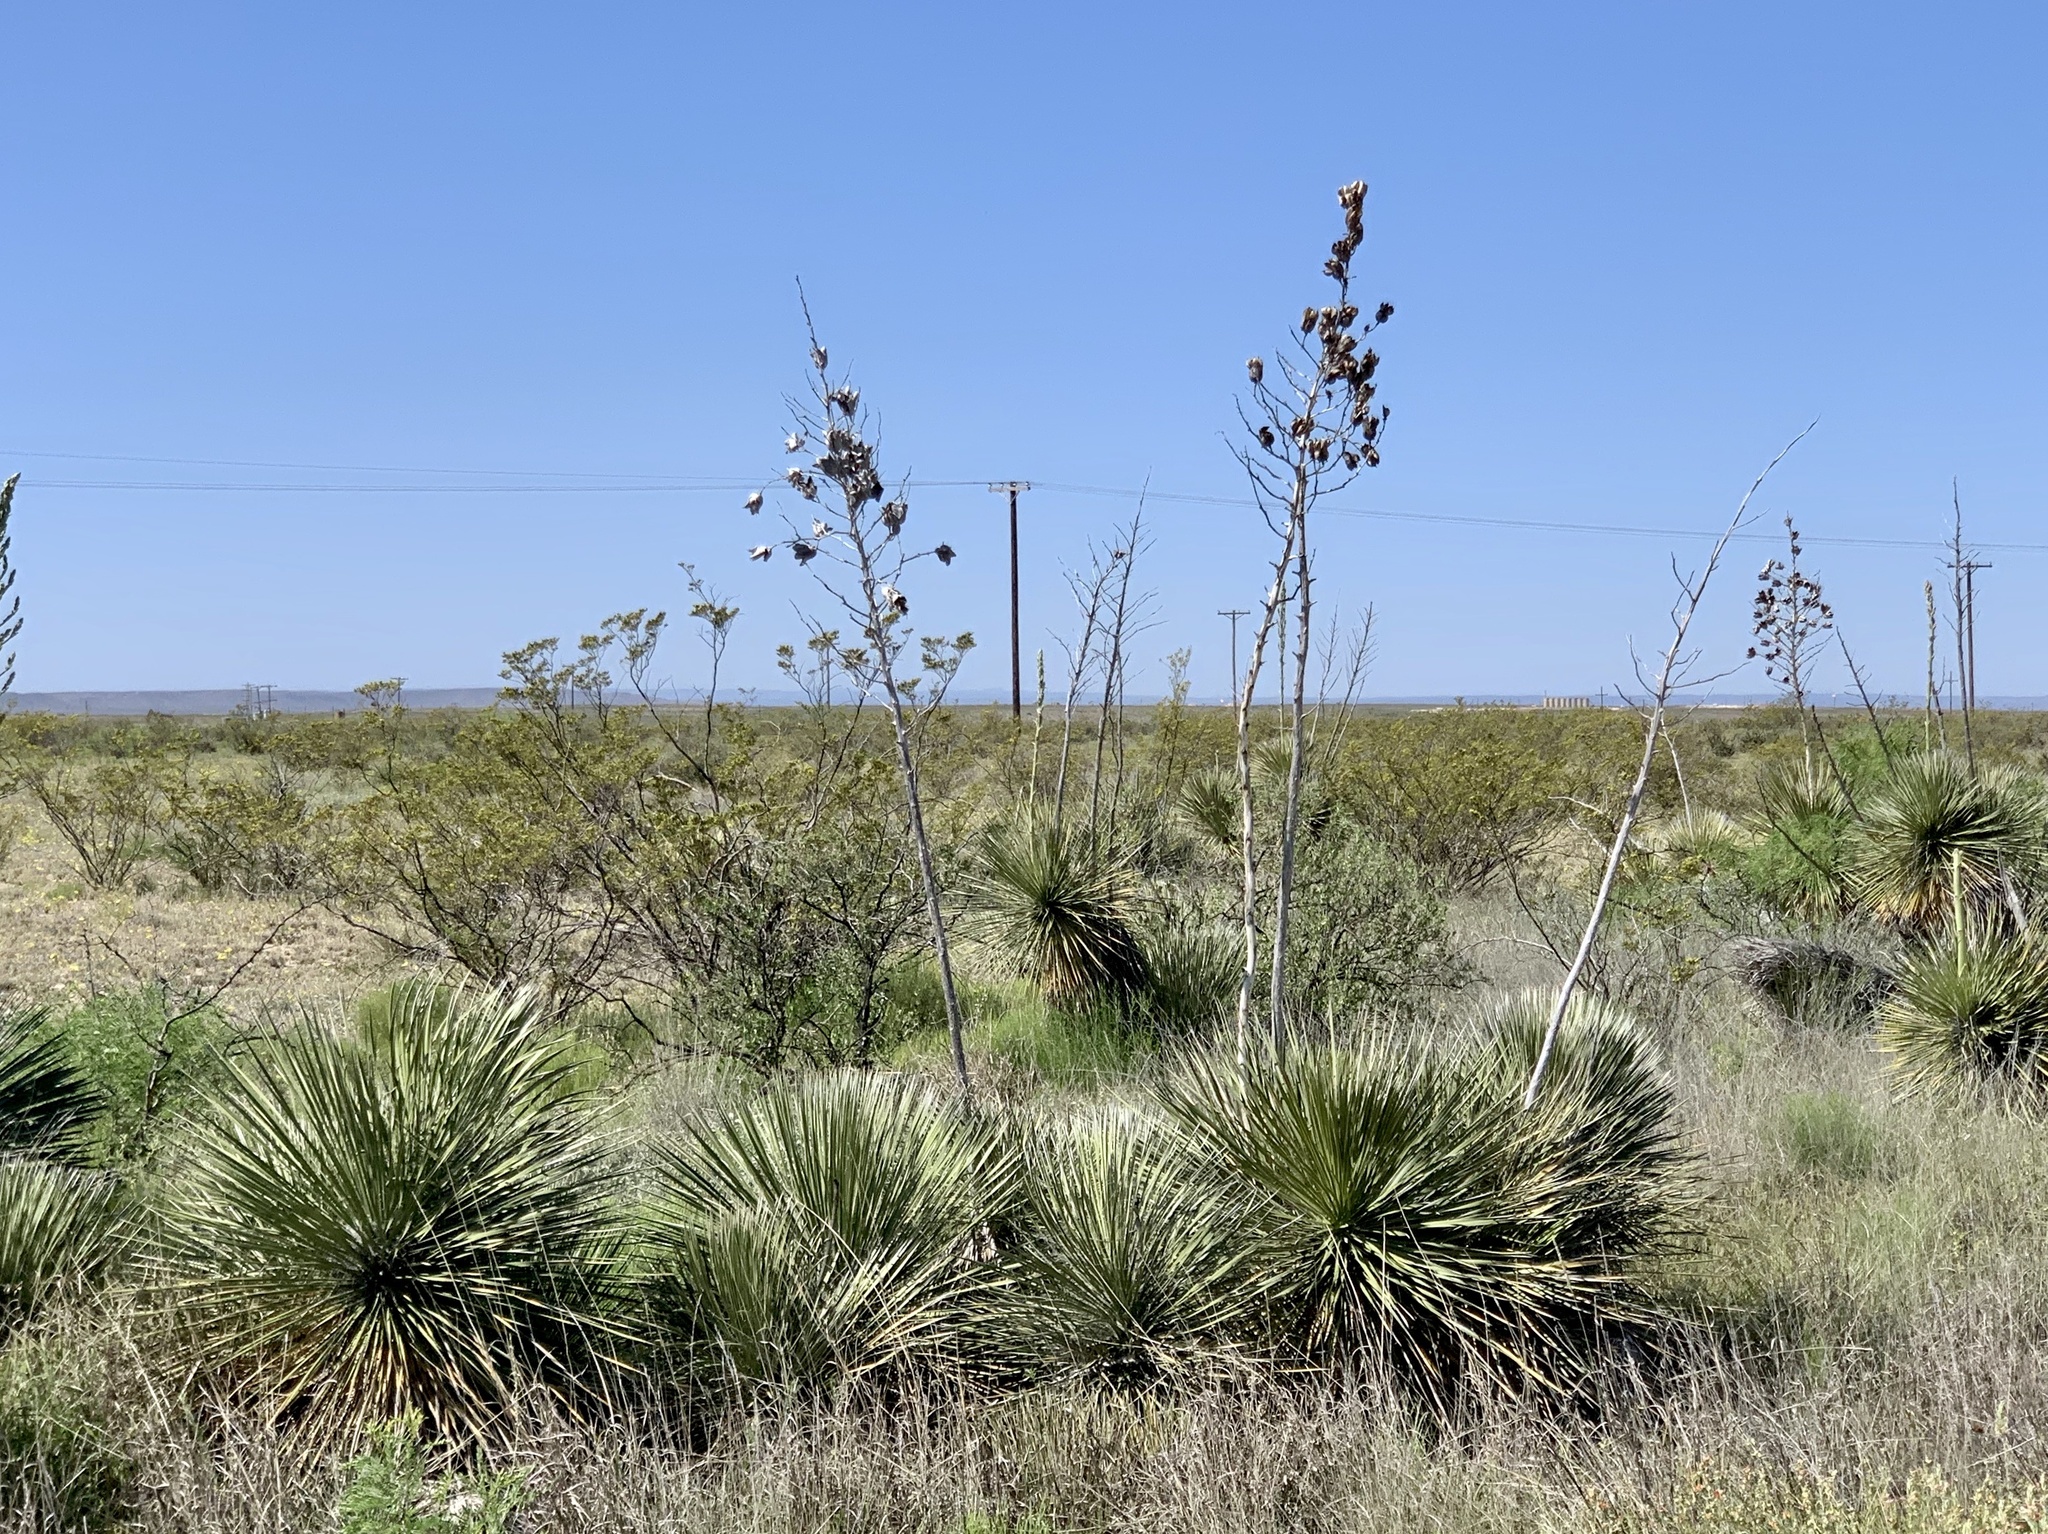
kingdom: Plantae
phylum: Tracheophyta
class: Liliopsida
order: Asparagales
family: Asparagaceae
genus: Yucca
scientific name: Yucca elata
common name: Palmella
